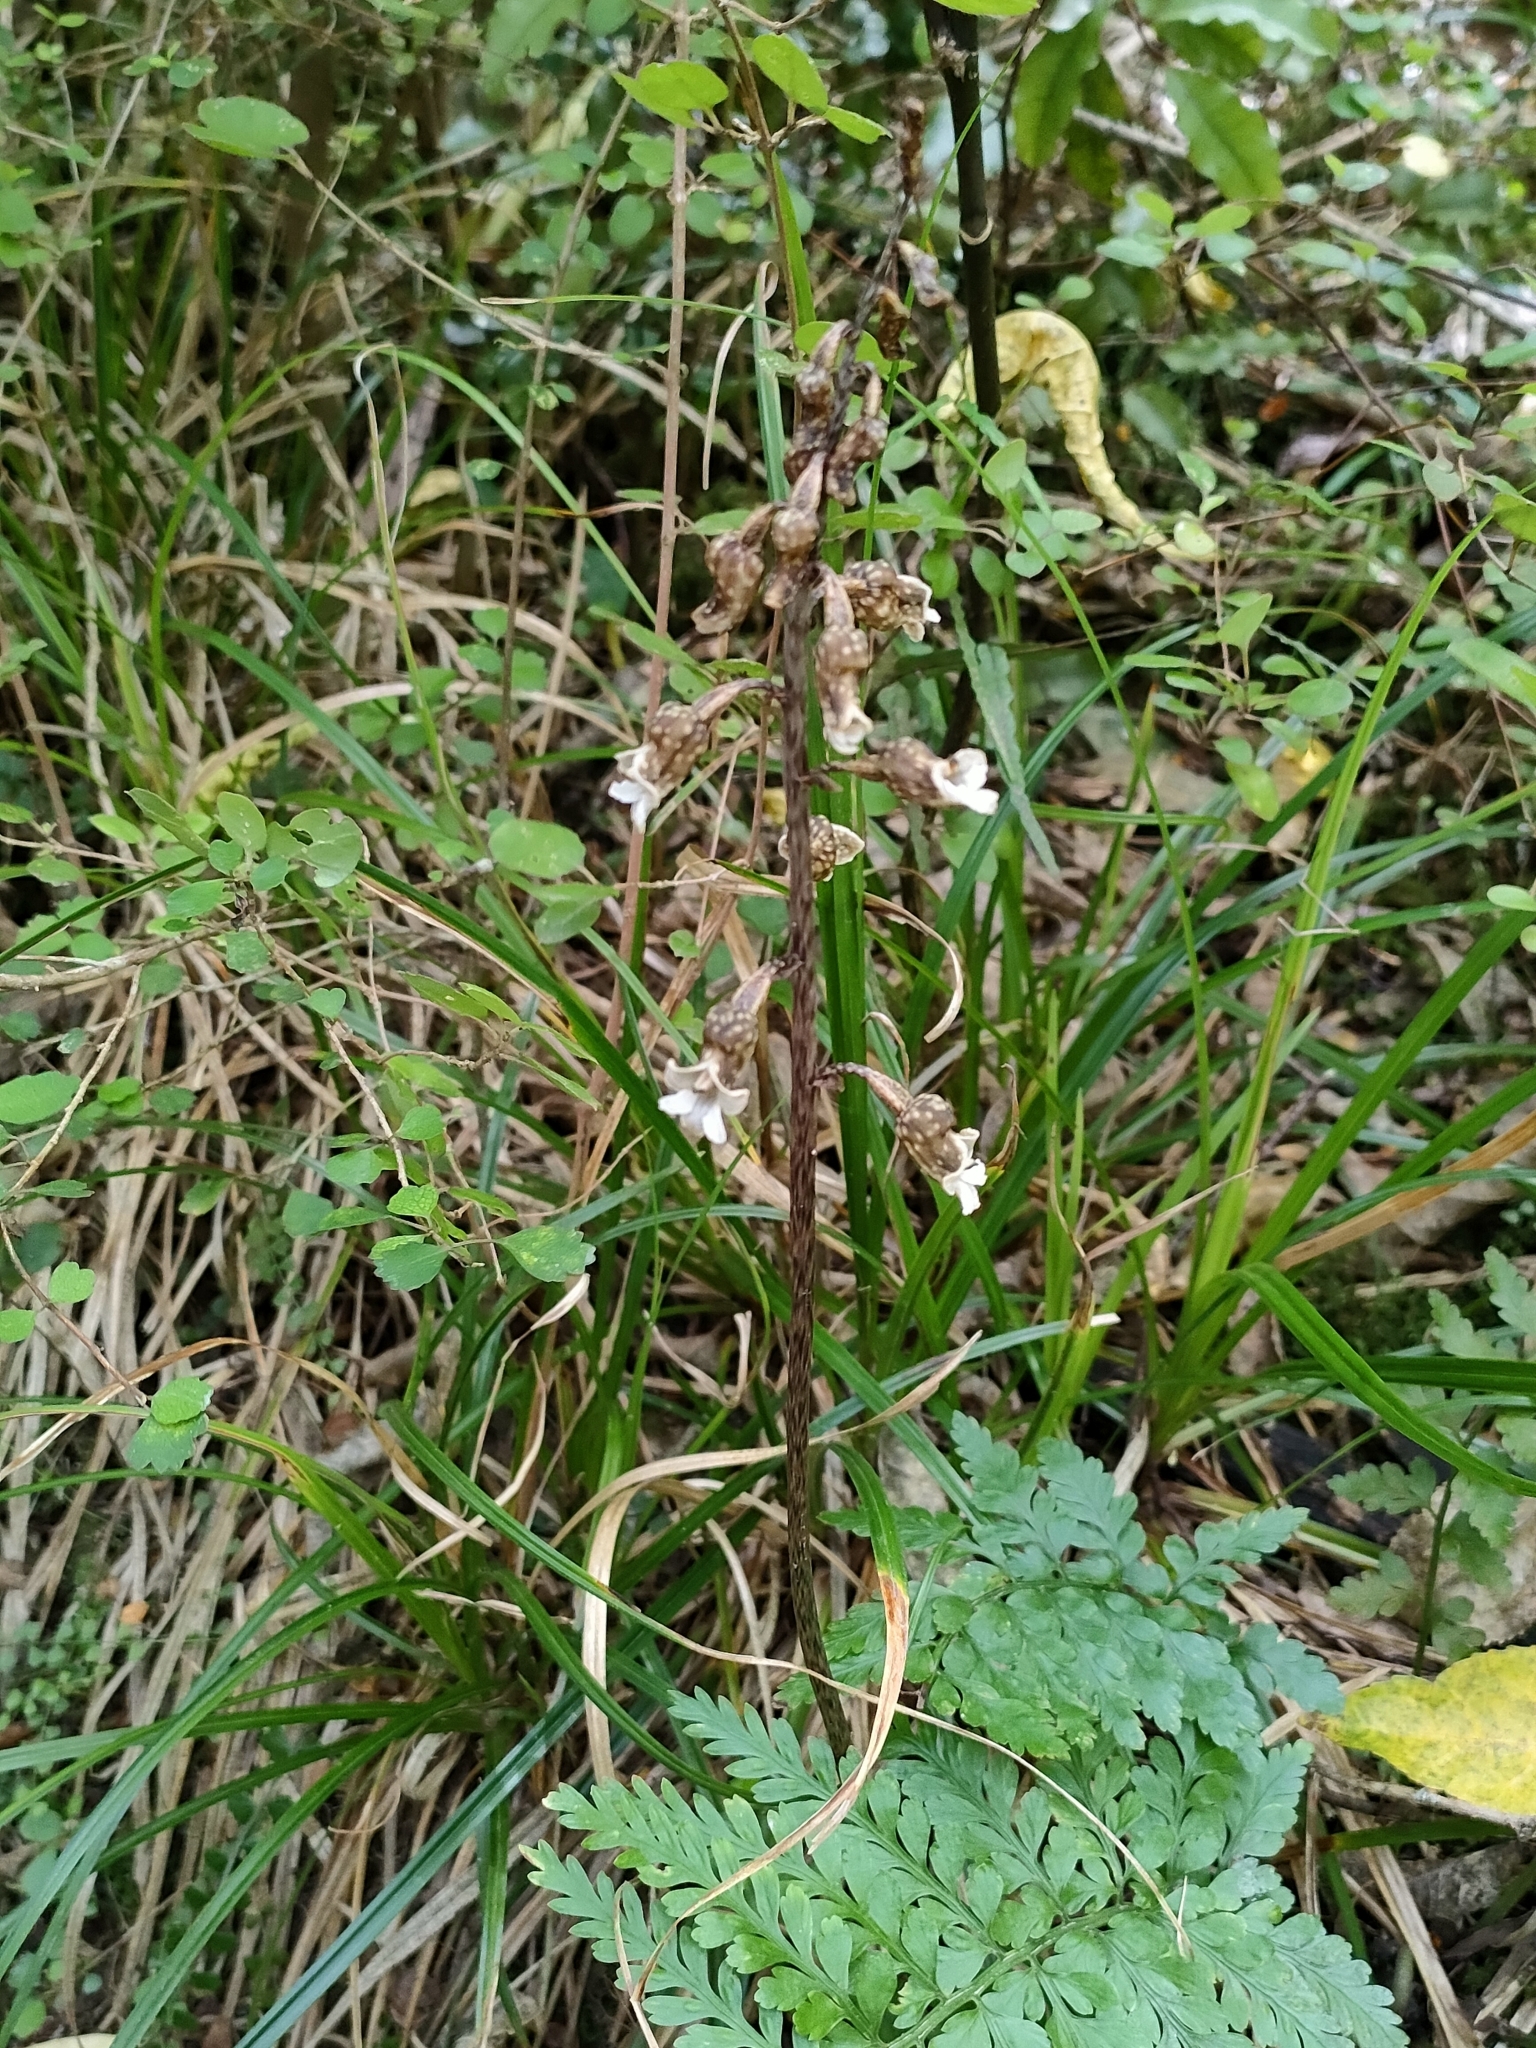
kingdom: Plantae
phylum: Tracheophyta
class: Liliopsida
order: Asparagales
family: Orchidaceae
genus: Gastrodia
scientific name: Gastrodia cunninghamii
